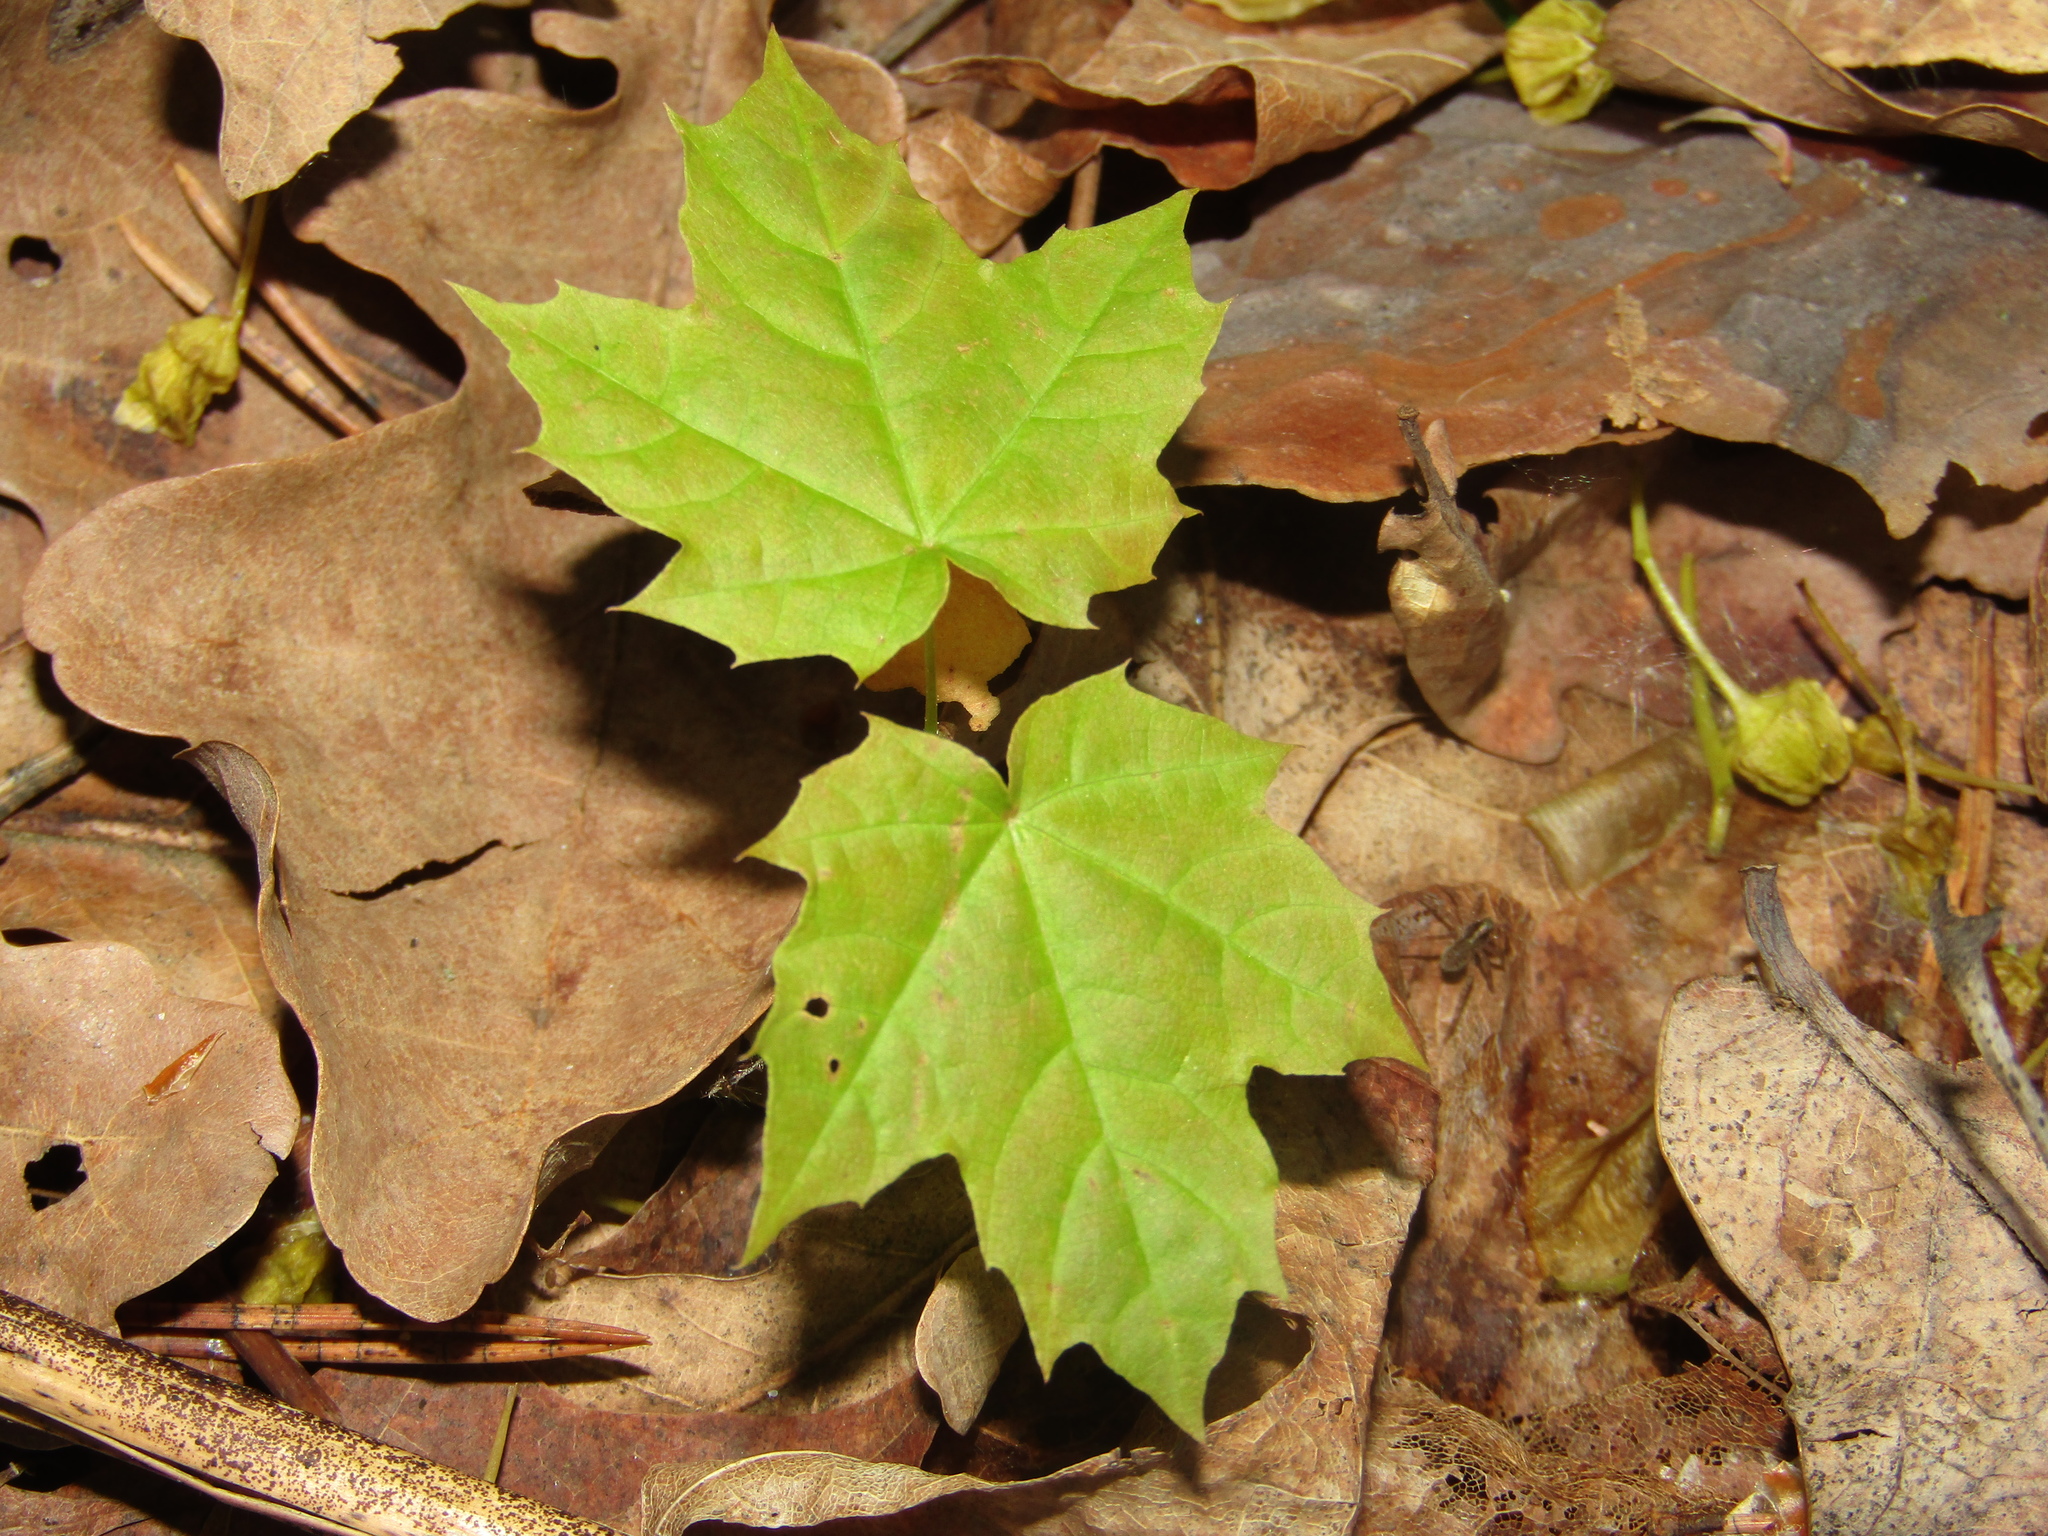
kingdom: Plantae
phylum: Tracheophyta
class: Magnoliopsida
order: Sapindales
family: Sapindaceae
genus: Acer
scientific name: Acer platanoides
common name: Norway maple
